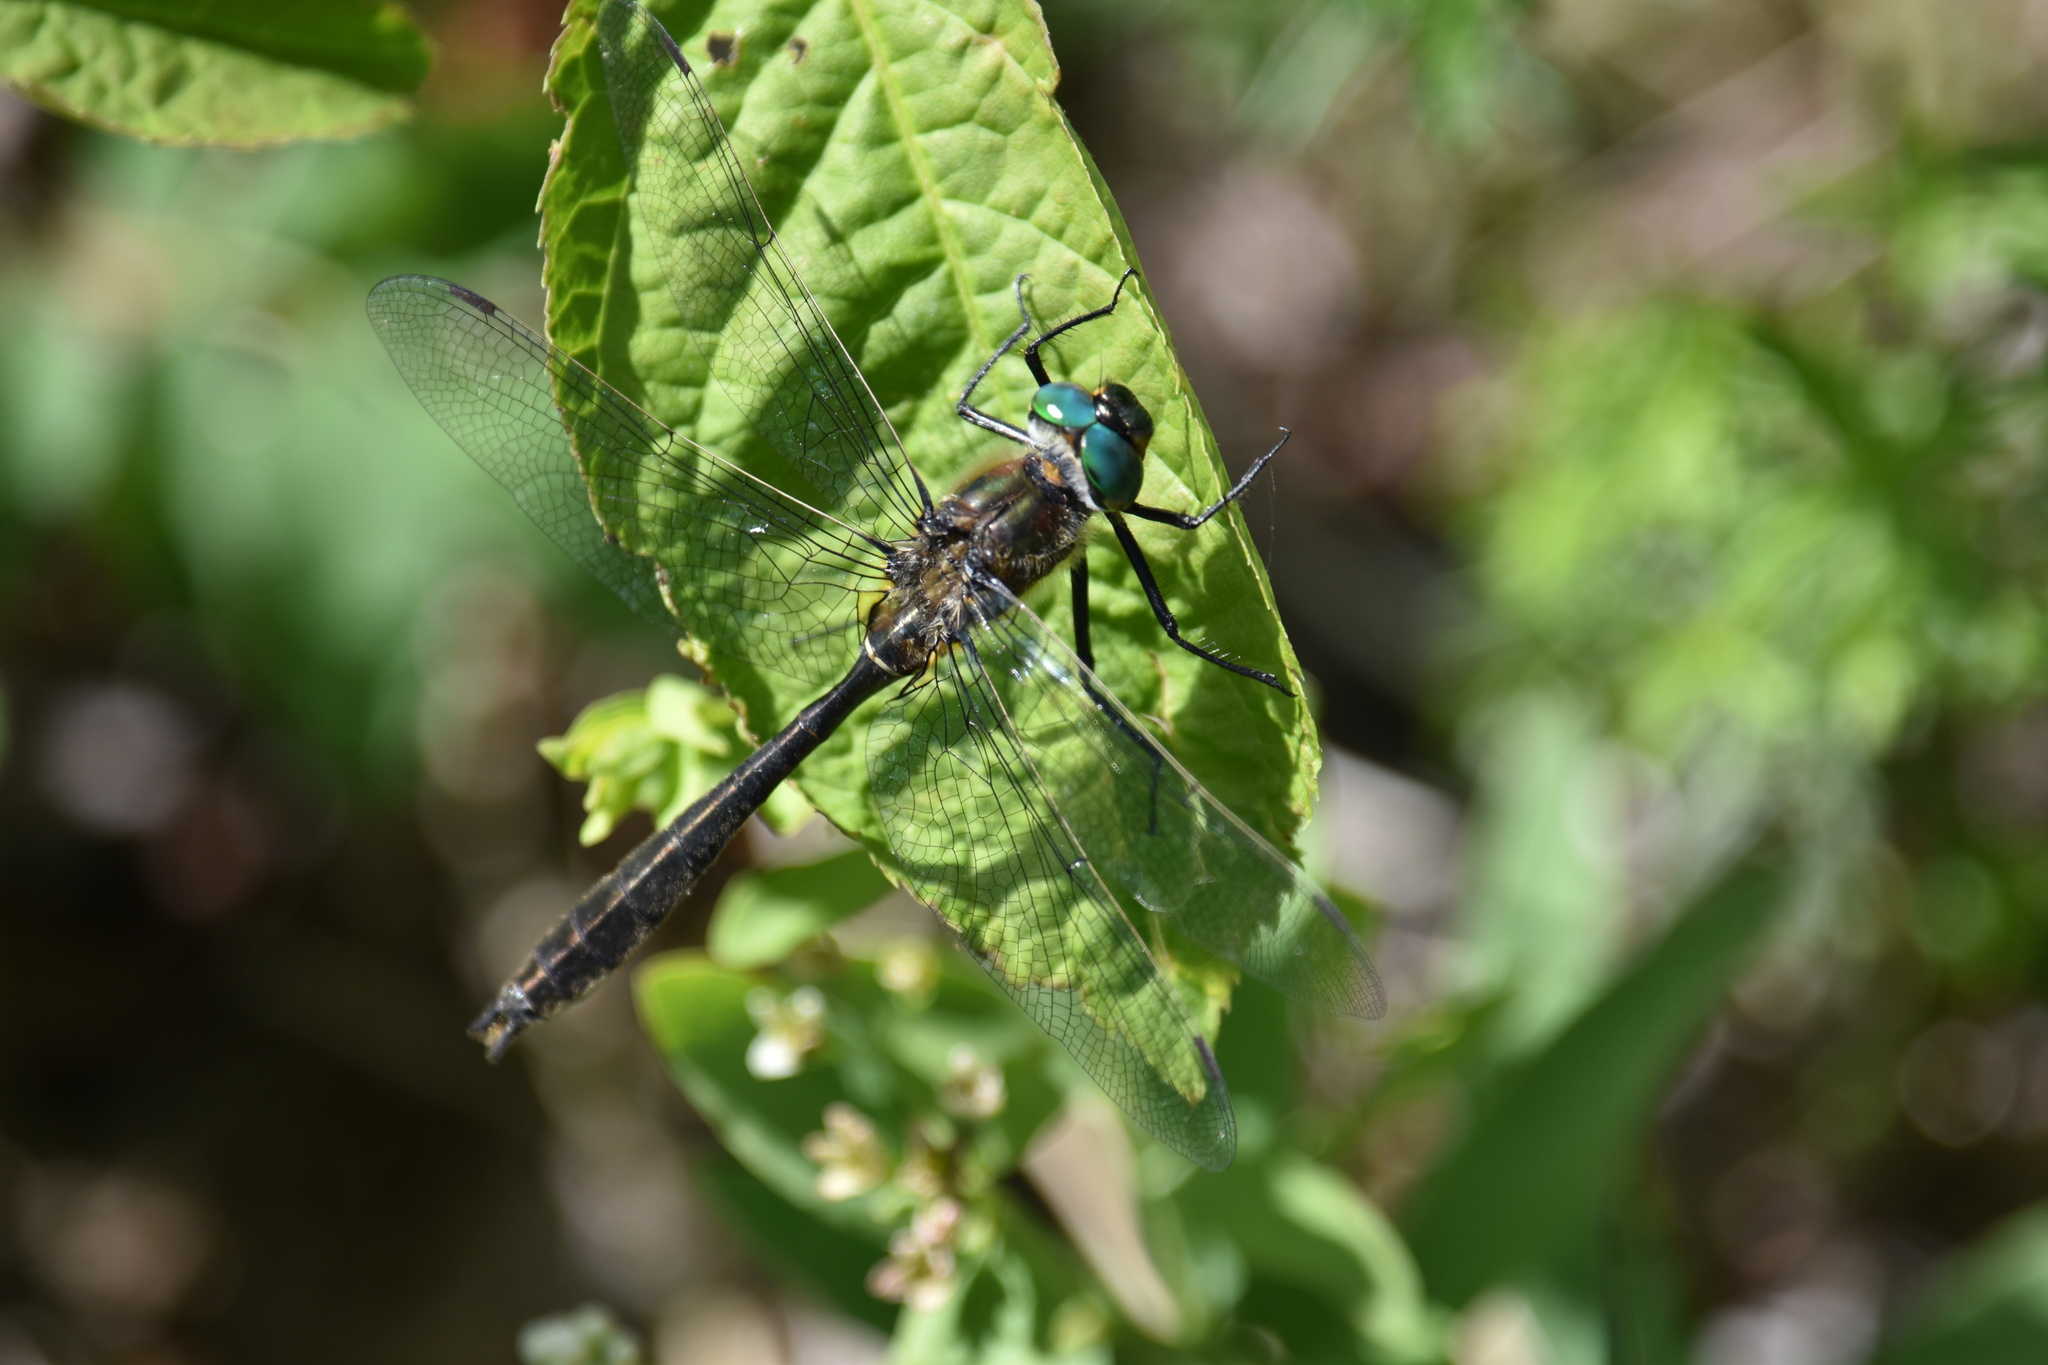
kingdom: Animalia
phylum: Arthropoda
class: Insecta
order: Odonata
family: Corduliidae
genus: Cordulia
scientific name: Cordulia shurtleffii
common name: American emerald
